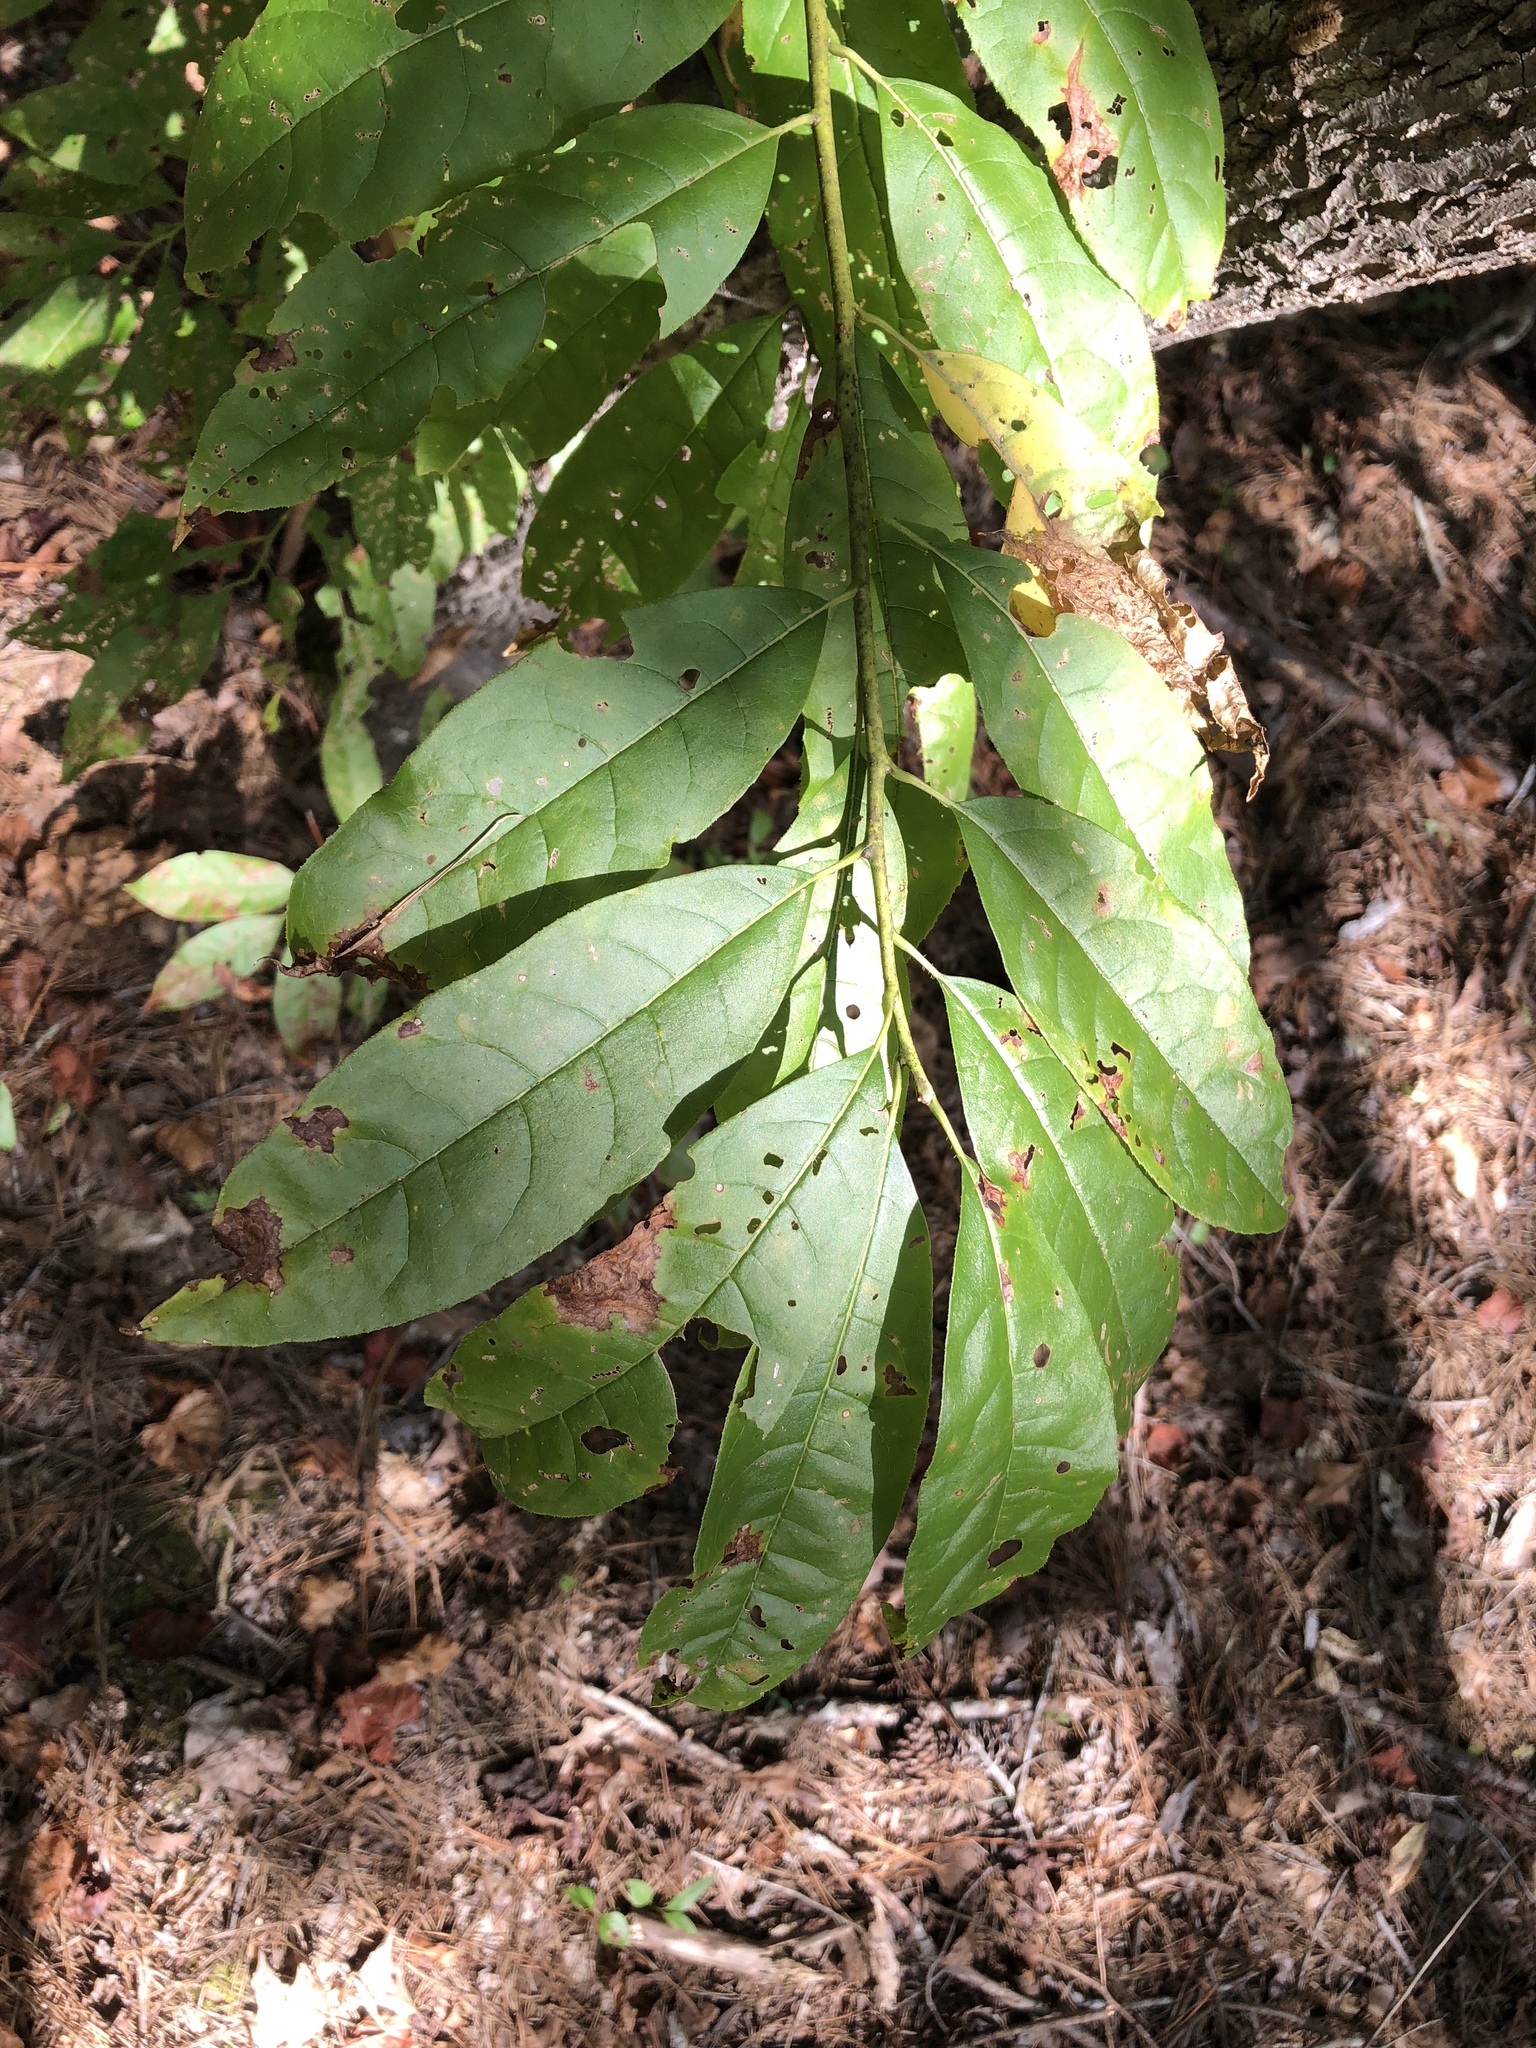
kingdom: Plantae
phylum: Tracheophyta
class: Magnoliopsida
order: Ericales
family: Ericaceae
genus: Oxydendrum
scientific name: Oxydendrum arboreum
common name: Sourwood
